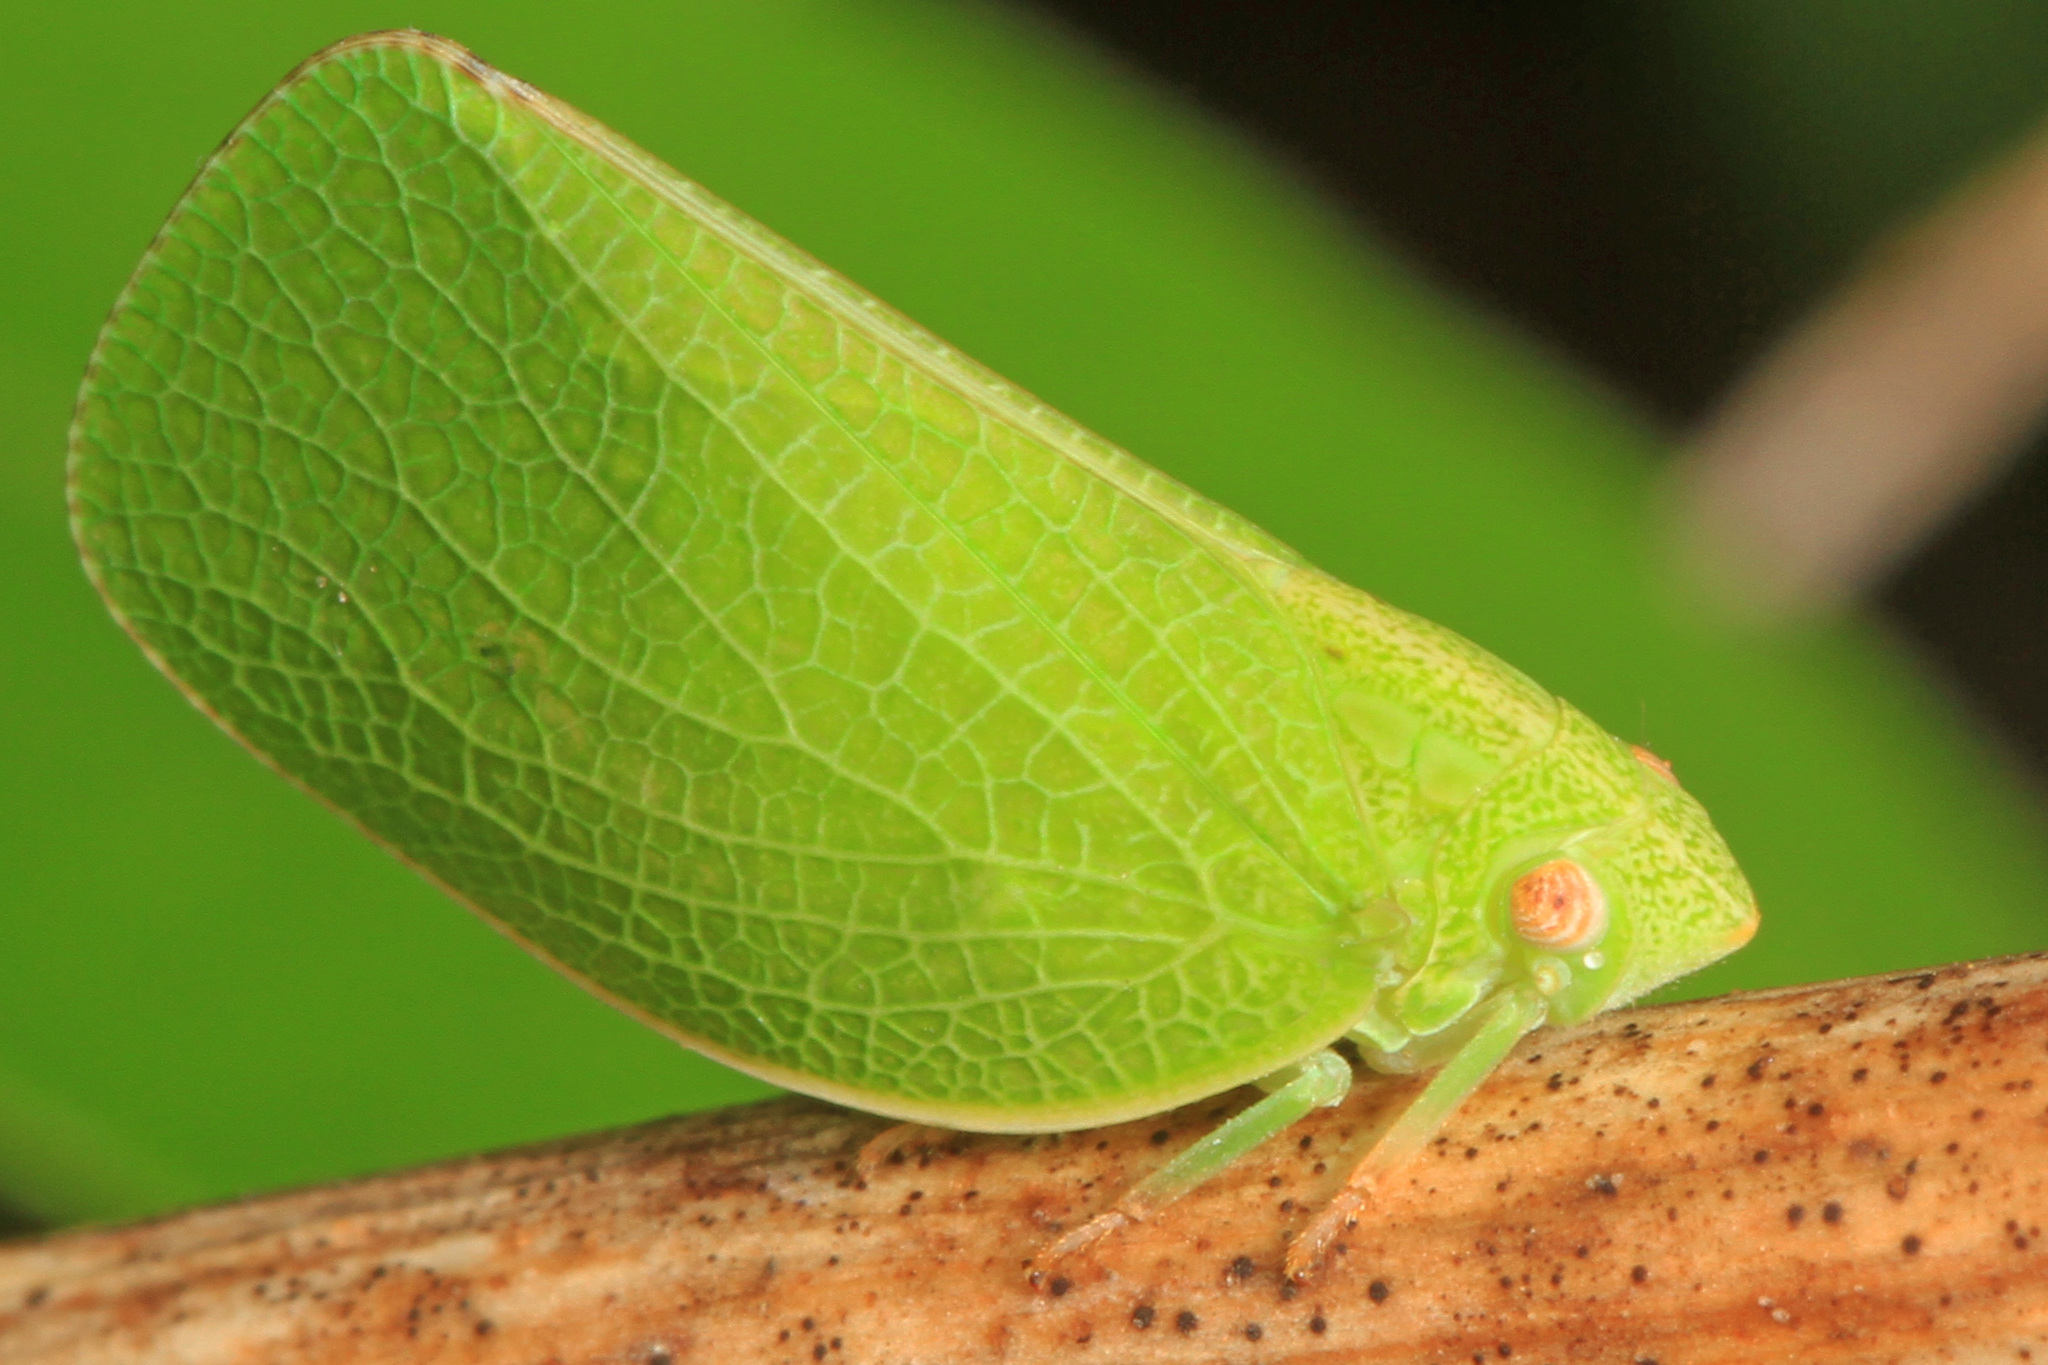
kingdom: Animalia
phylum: Arthropoda
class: Insecta
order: Hemiptera
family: Acanaloniidae
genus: Acanalonia
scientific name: Acanalonia conica
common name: Green cone-headed planthopper
